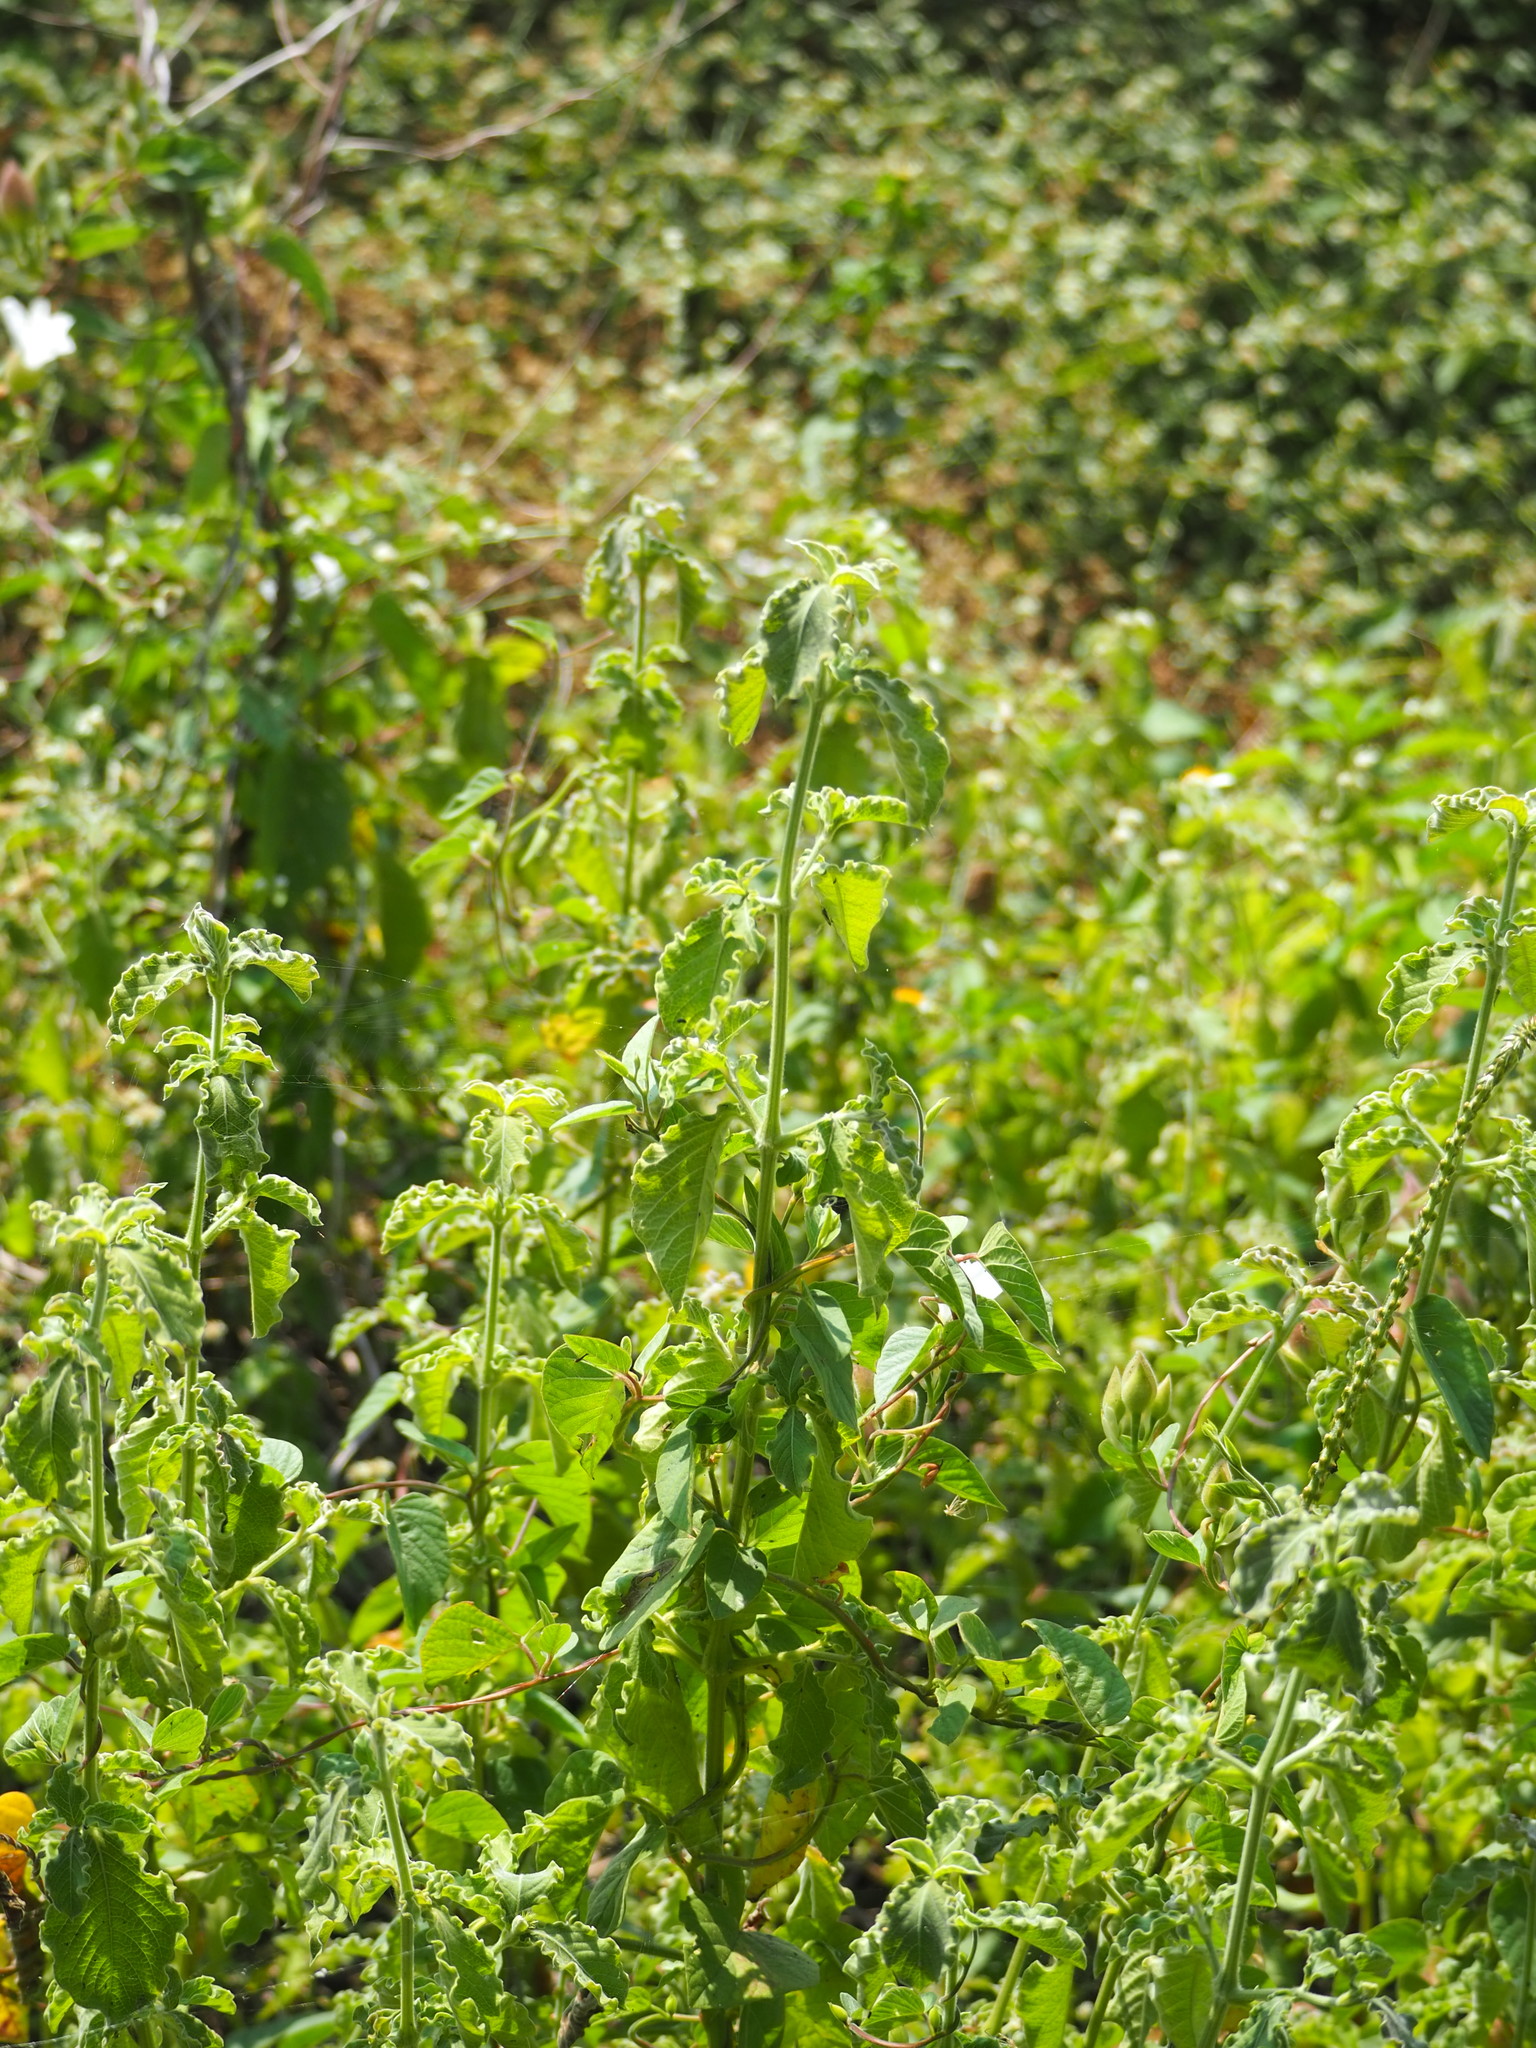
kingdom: Plantae
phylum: Tracheophyta
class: Magnoliopsida
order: Caryophyllales
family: Amaranthaceae
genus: Achyranthes
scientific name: Achyranthes aspera
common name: Devil's horsewhip
